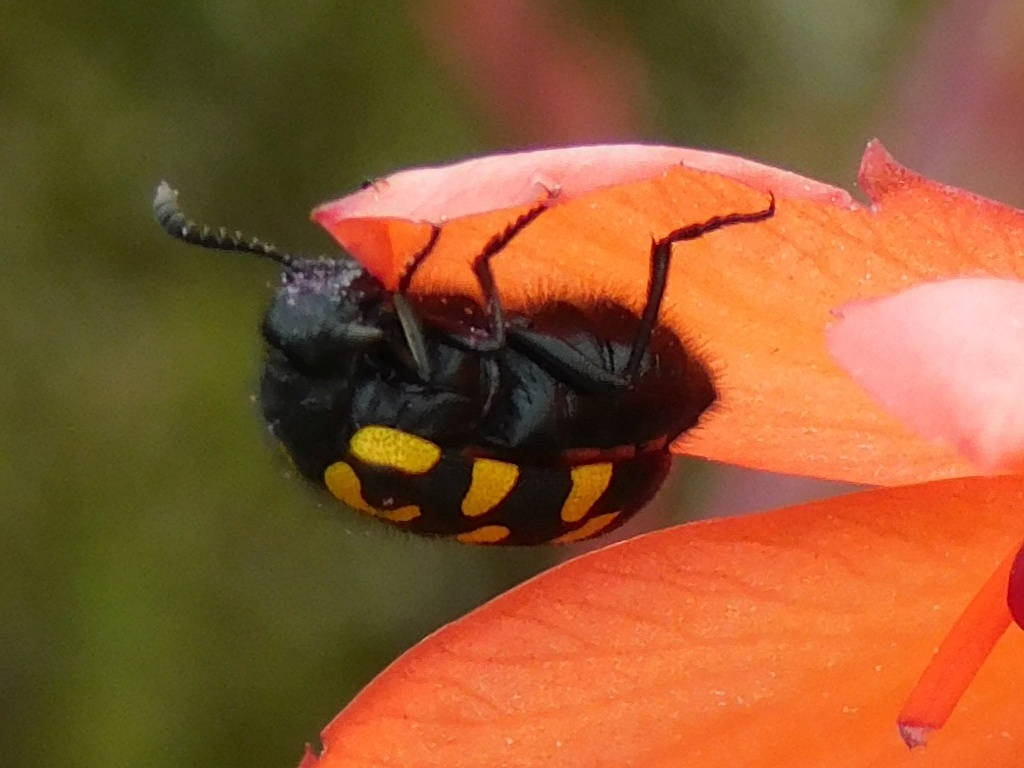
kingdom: Animalia
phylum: Arthropoda
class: Insecta
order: Coleoptera
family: Meloidae
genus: Ceroctis
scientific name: Ceroctis capensis
